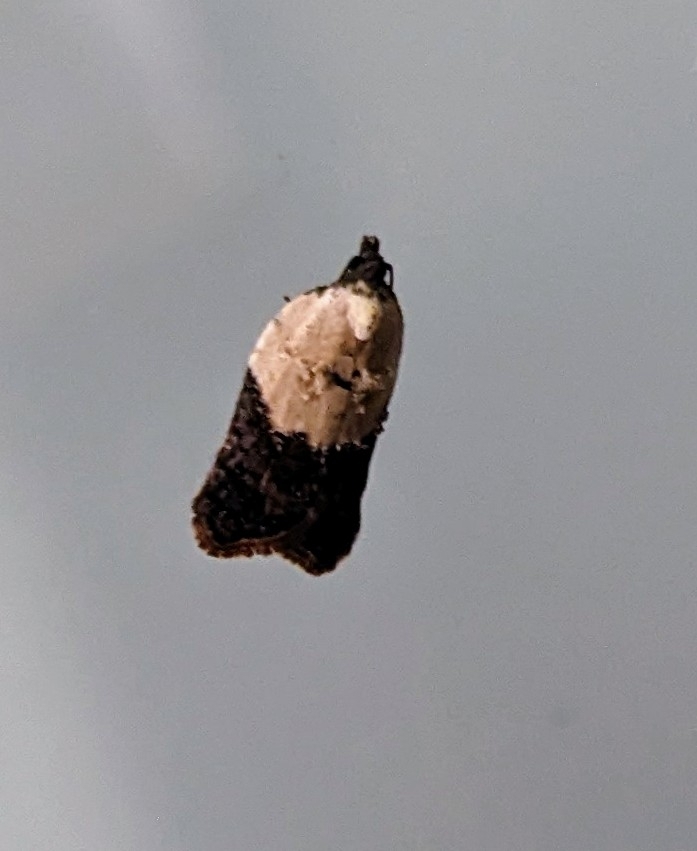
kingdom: Animalia
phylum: Arthropoda
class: Insecta
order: Lepidoptera
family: Tortricidae
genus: Acleris
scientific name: Acleris variegana
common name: Garden rose tortrix
